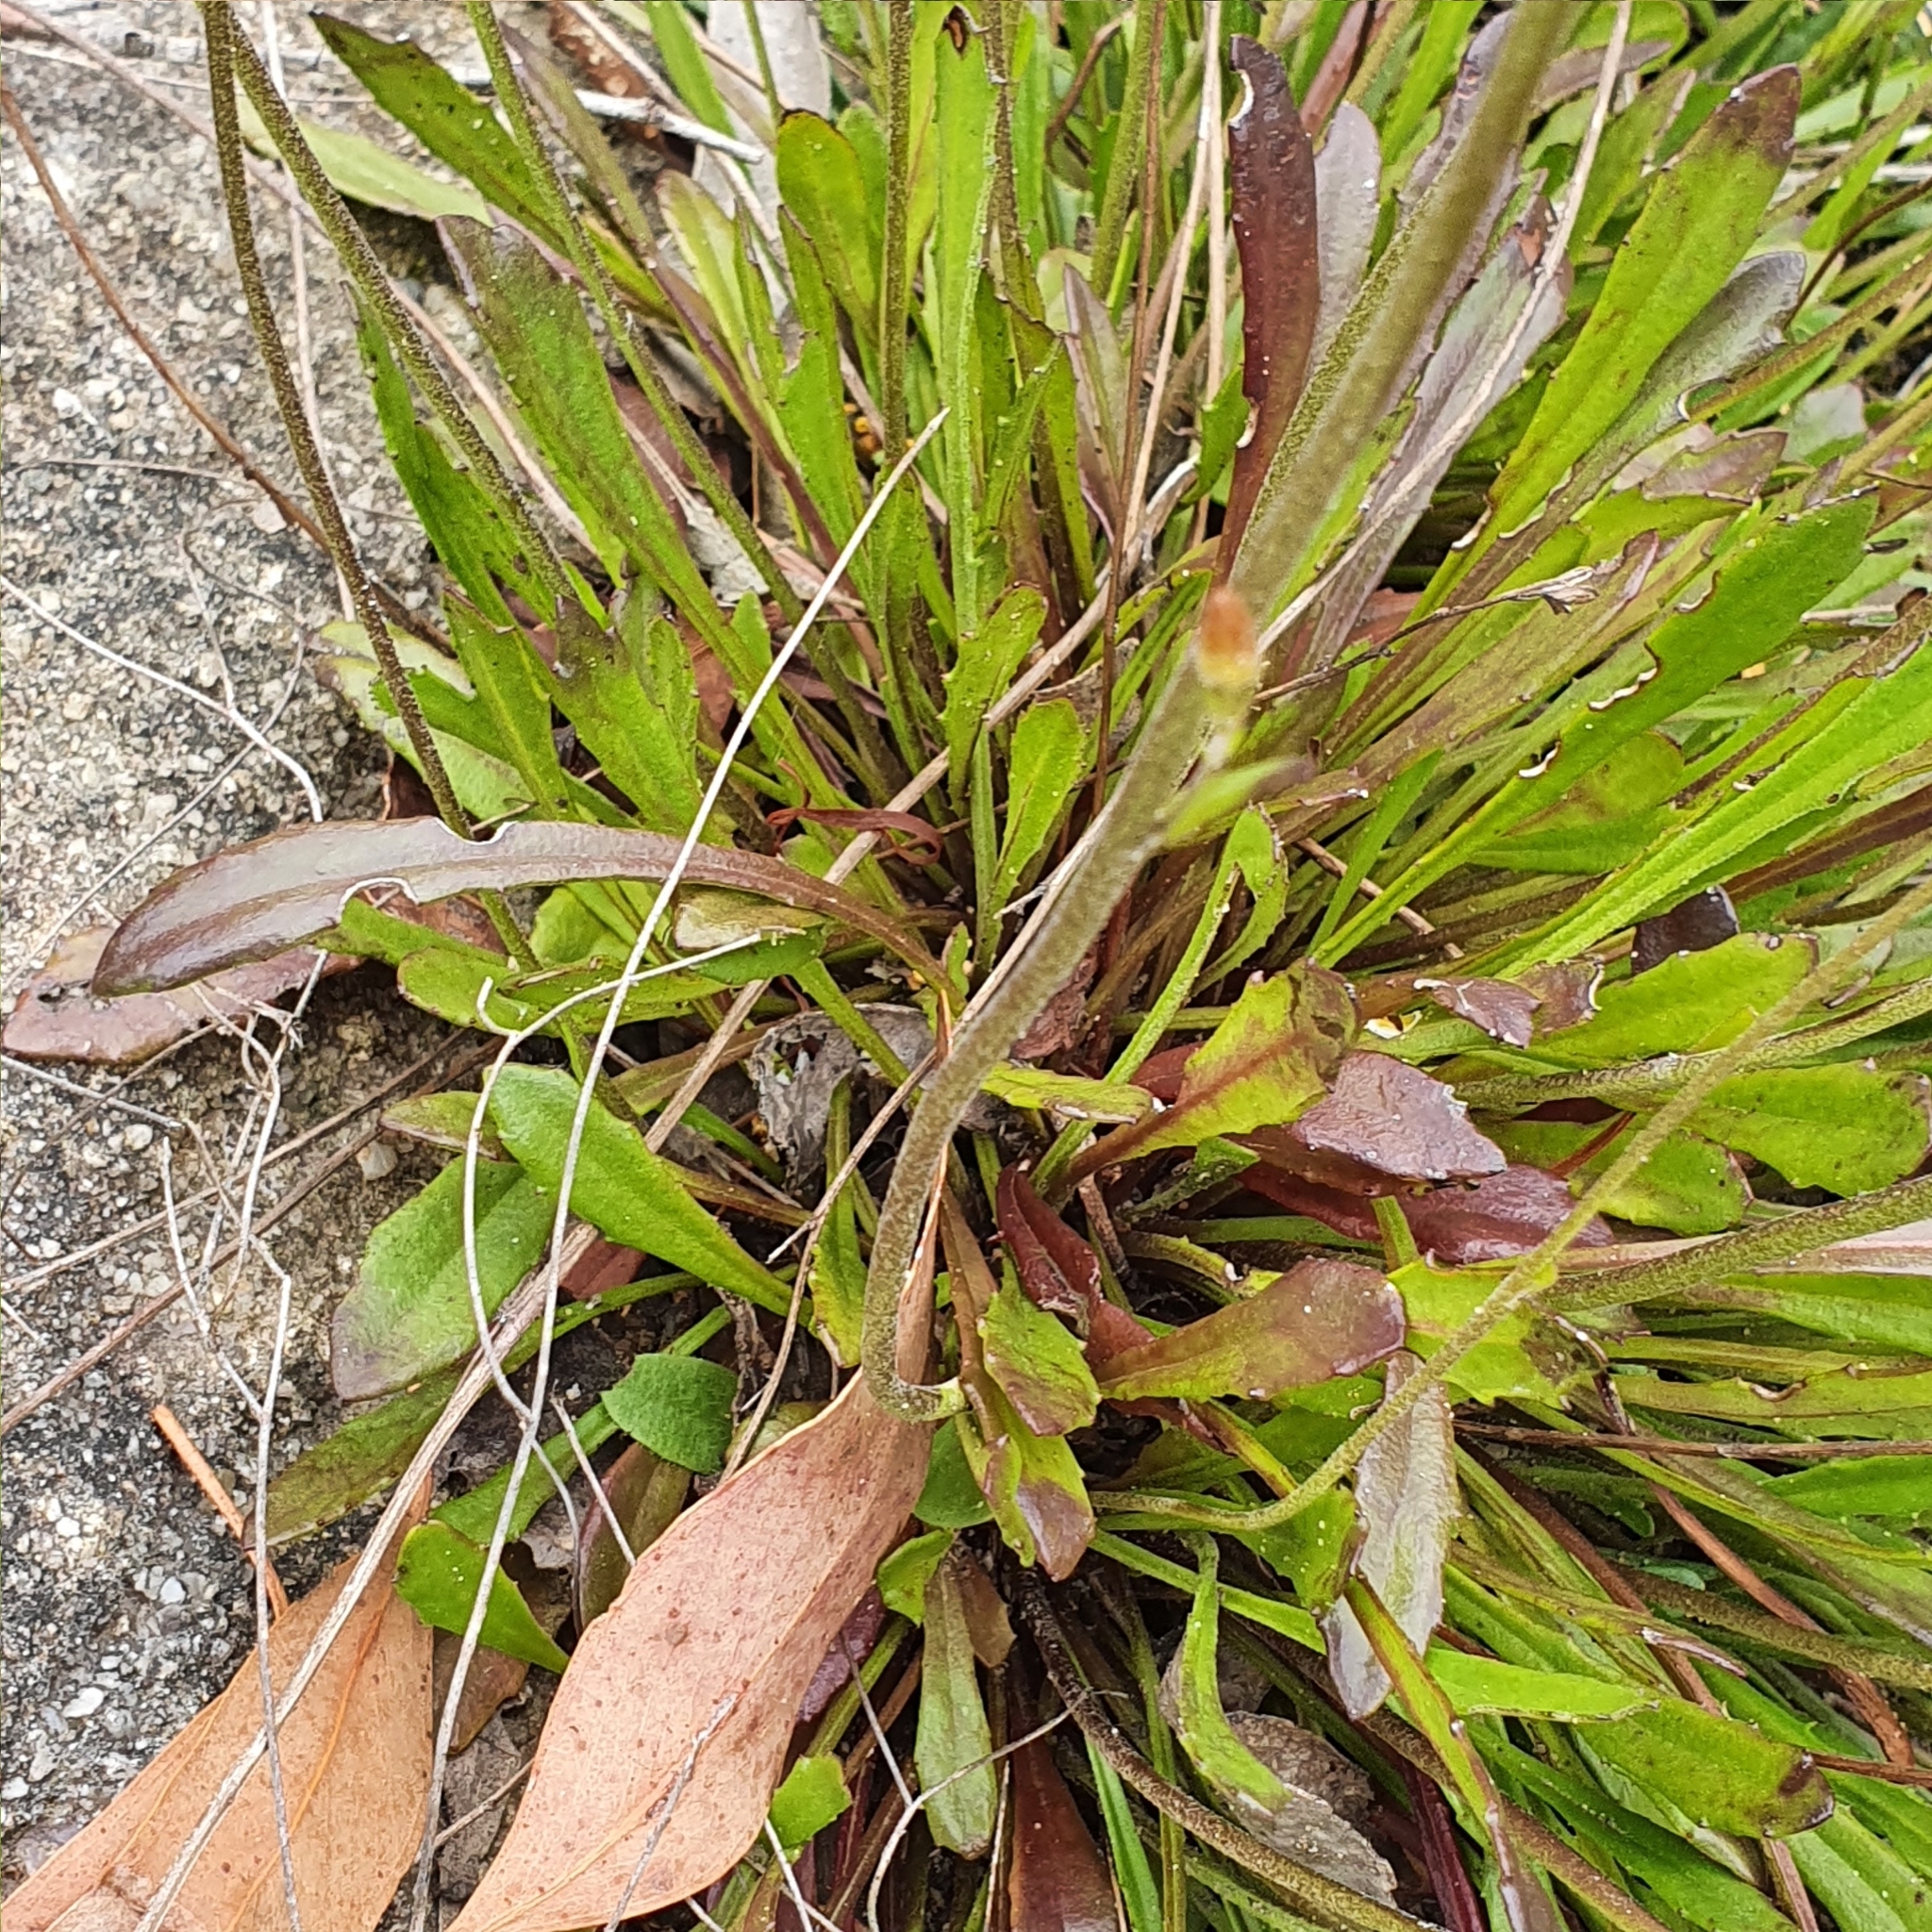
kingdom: Plantae
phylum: Tracheophyta
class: Magnoliopsida
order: Asterales
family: Goodeniaceae
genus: Goodenia
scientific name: Goodenia bellidifolia
